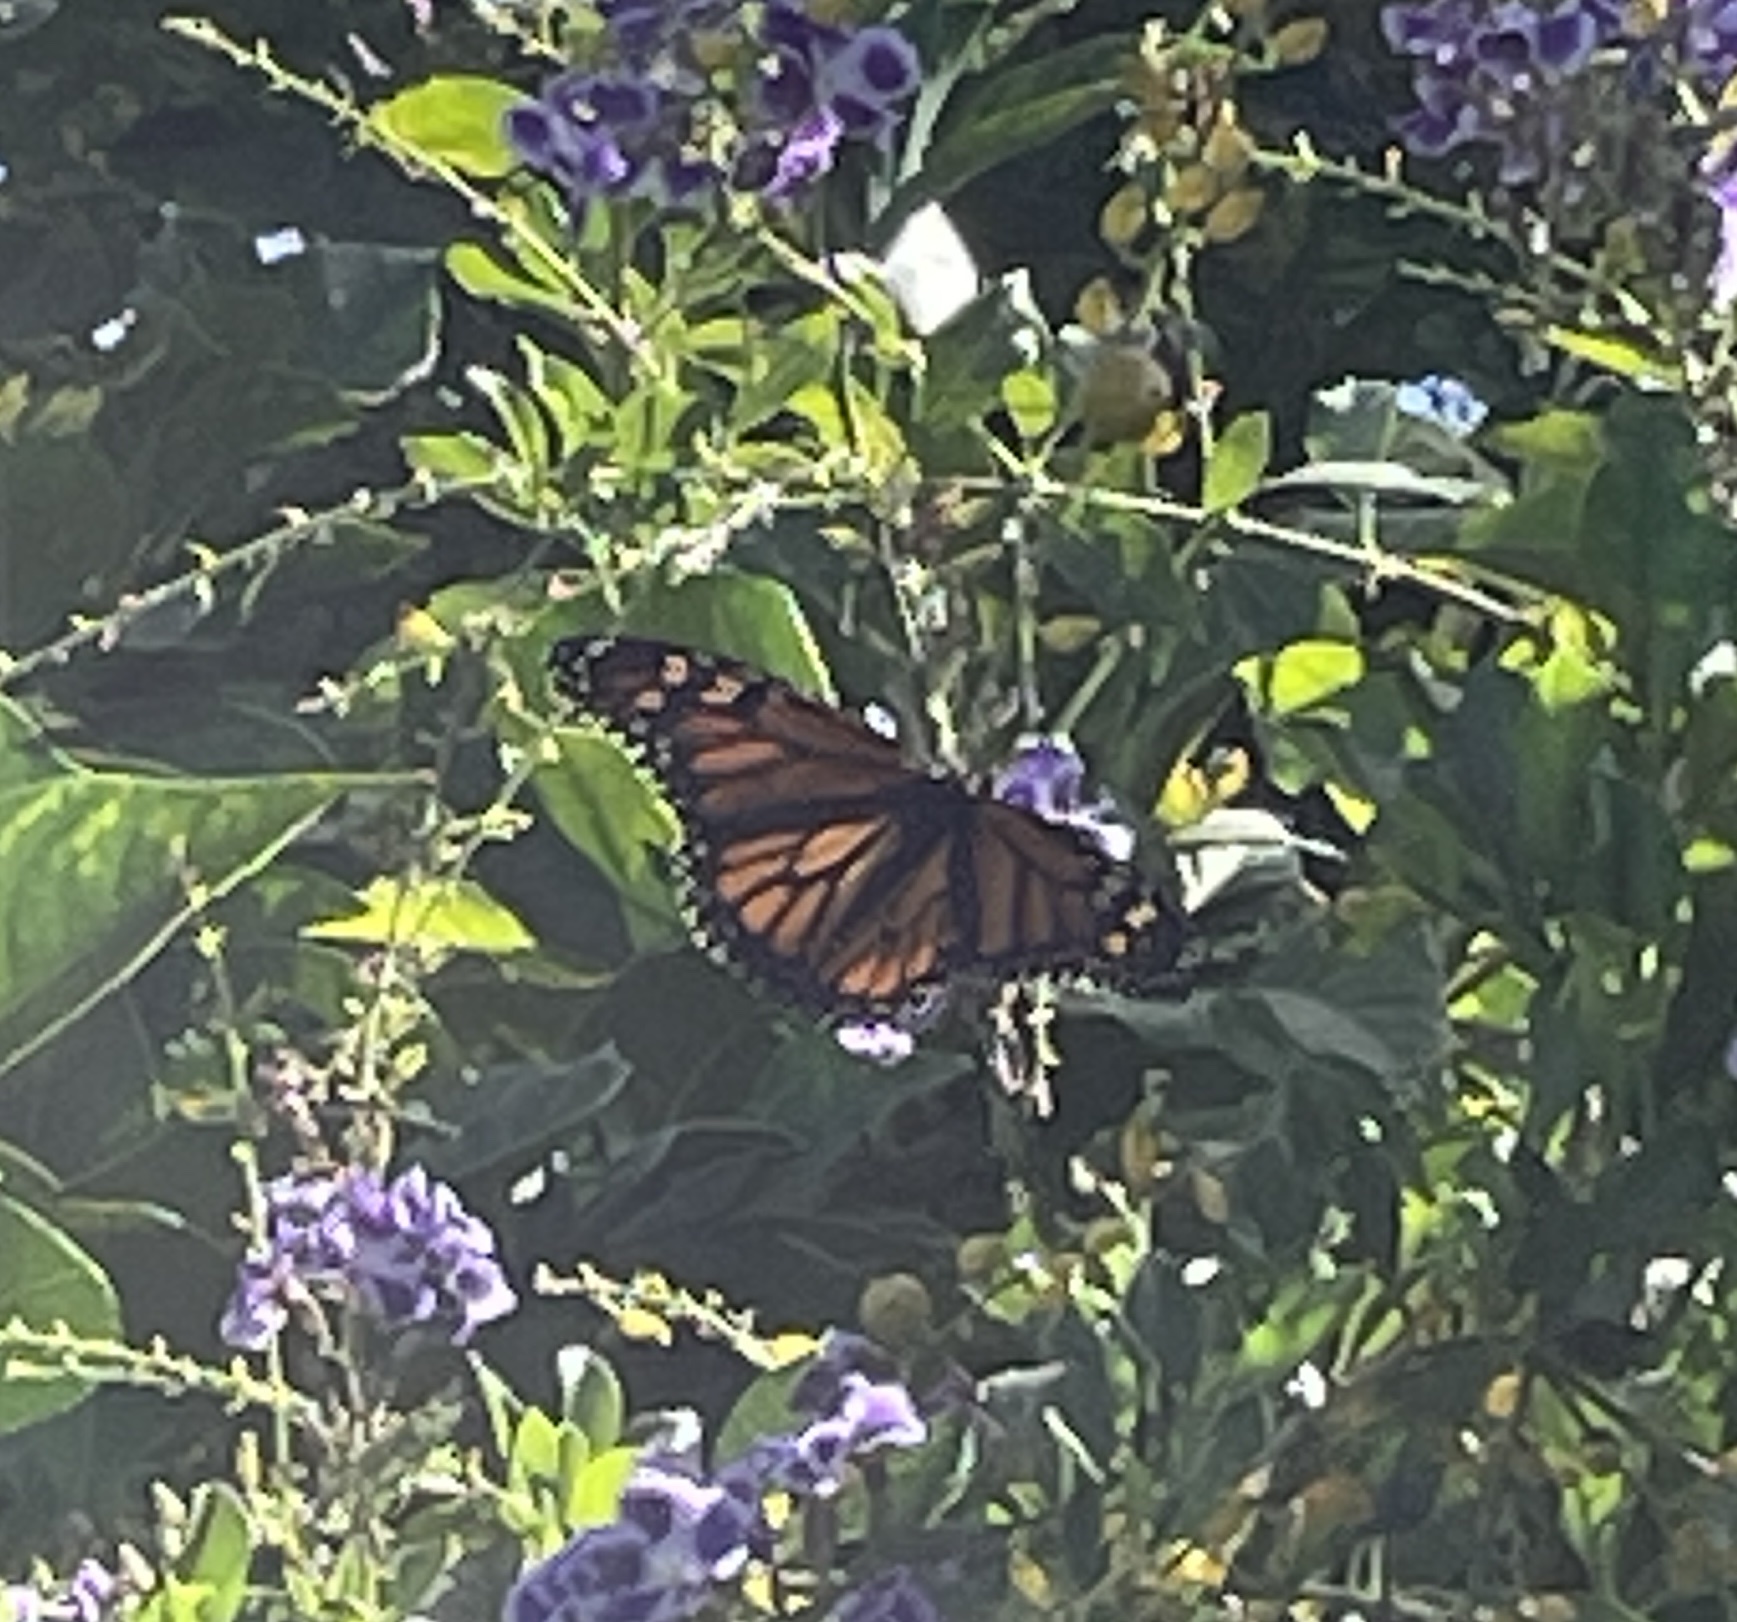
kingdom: Animalia
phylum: Arthropoda
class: Insecta
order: Lepidoptera
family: Nymphalidae
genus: Danaus
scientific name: Danaus plexippus
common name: Monarch
